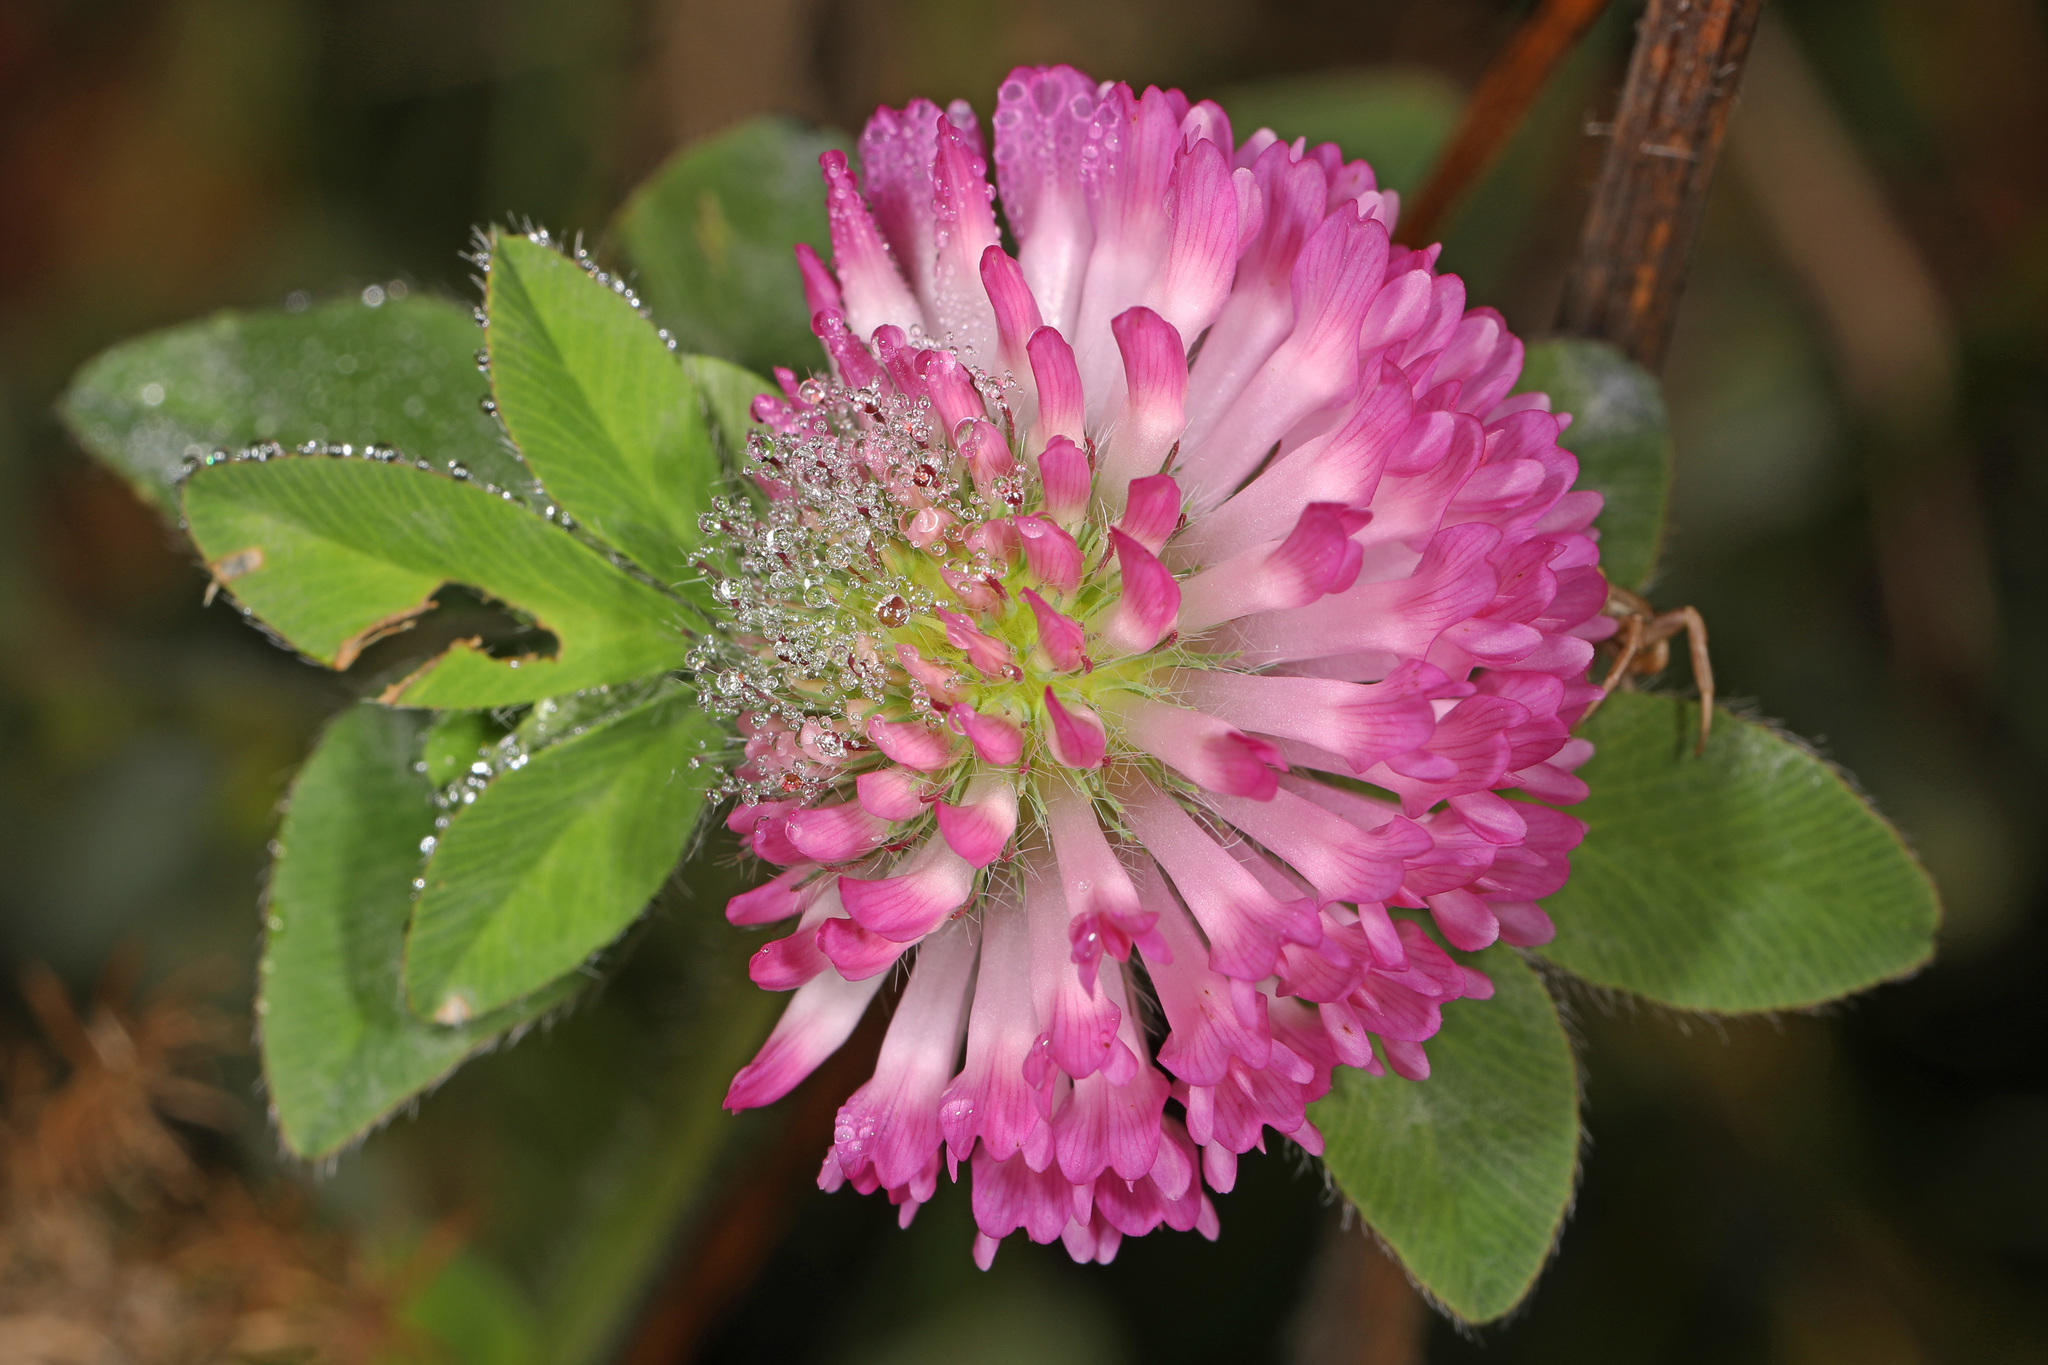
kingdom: Plantae
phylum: Tracheophyta
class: Magnoliopsida
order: Fabales
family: Fabaceae
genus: Trifolium
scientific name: Trifolium pratense
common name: Red clover
